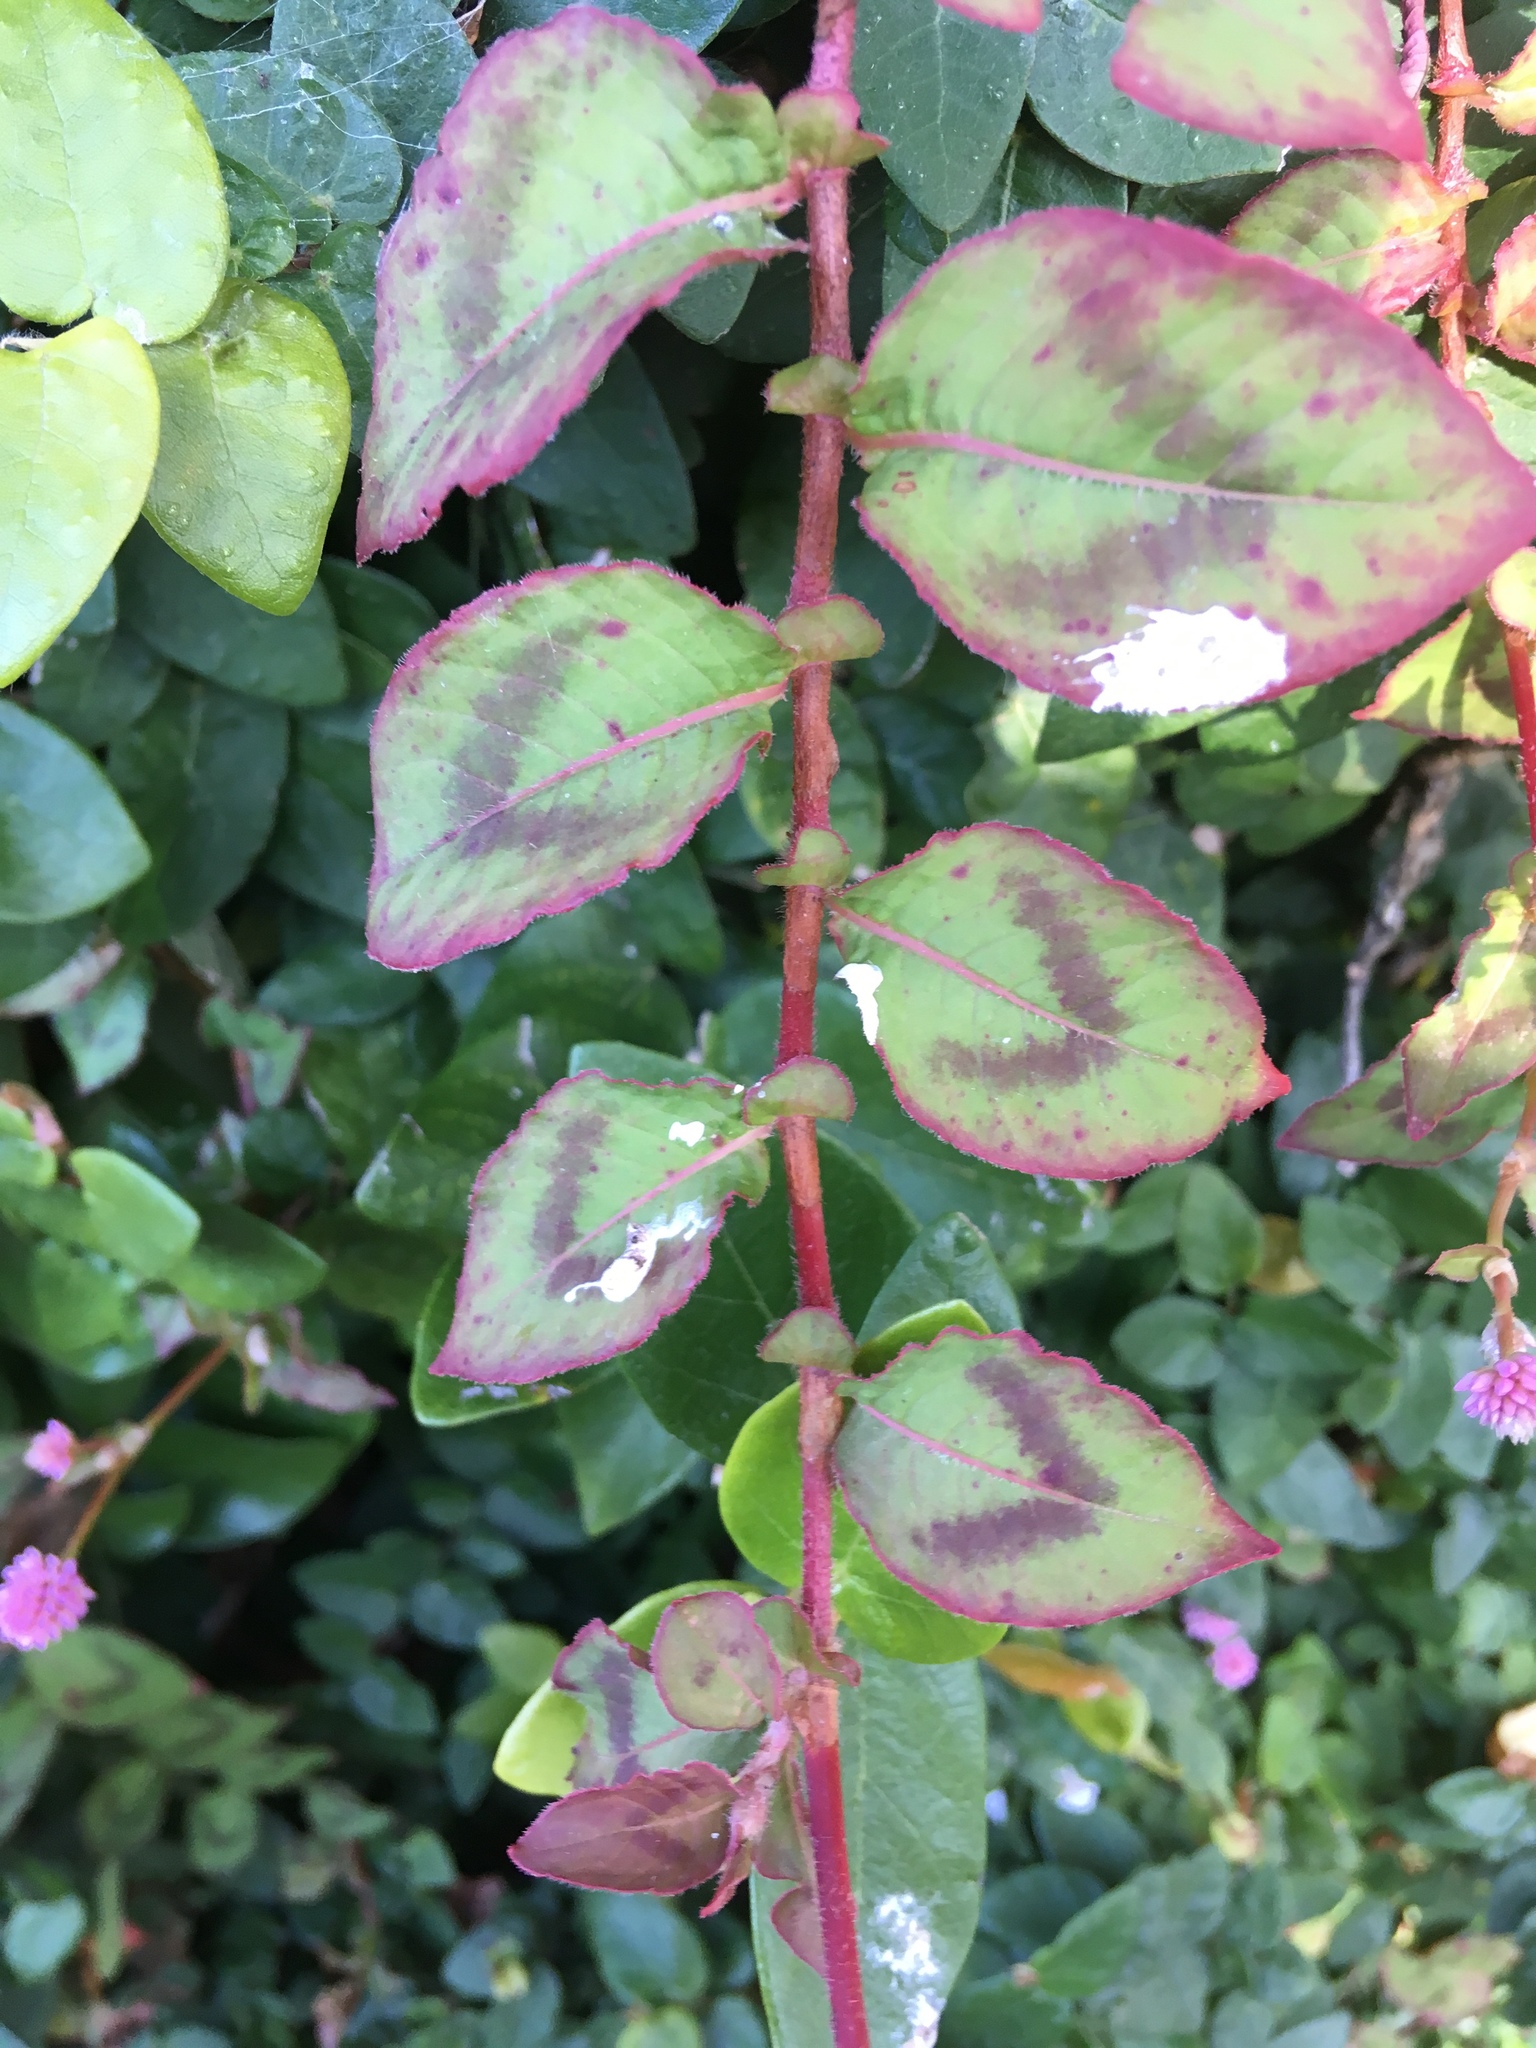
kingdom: Plantae
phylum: Tracheophyta
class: Magnoliopsida
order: Caryophyllales
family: Polygonaceae
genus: Persicaria
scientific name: Persicaria capitata
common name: Pinkhead smartweed
